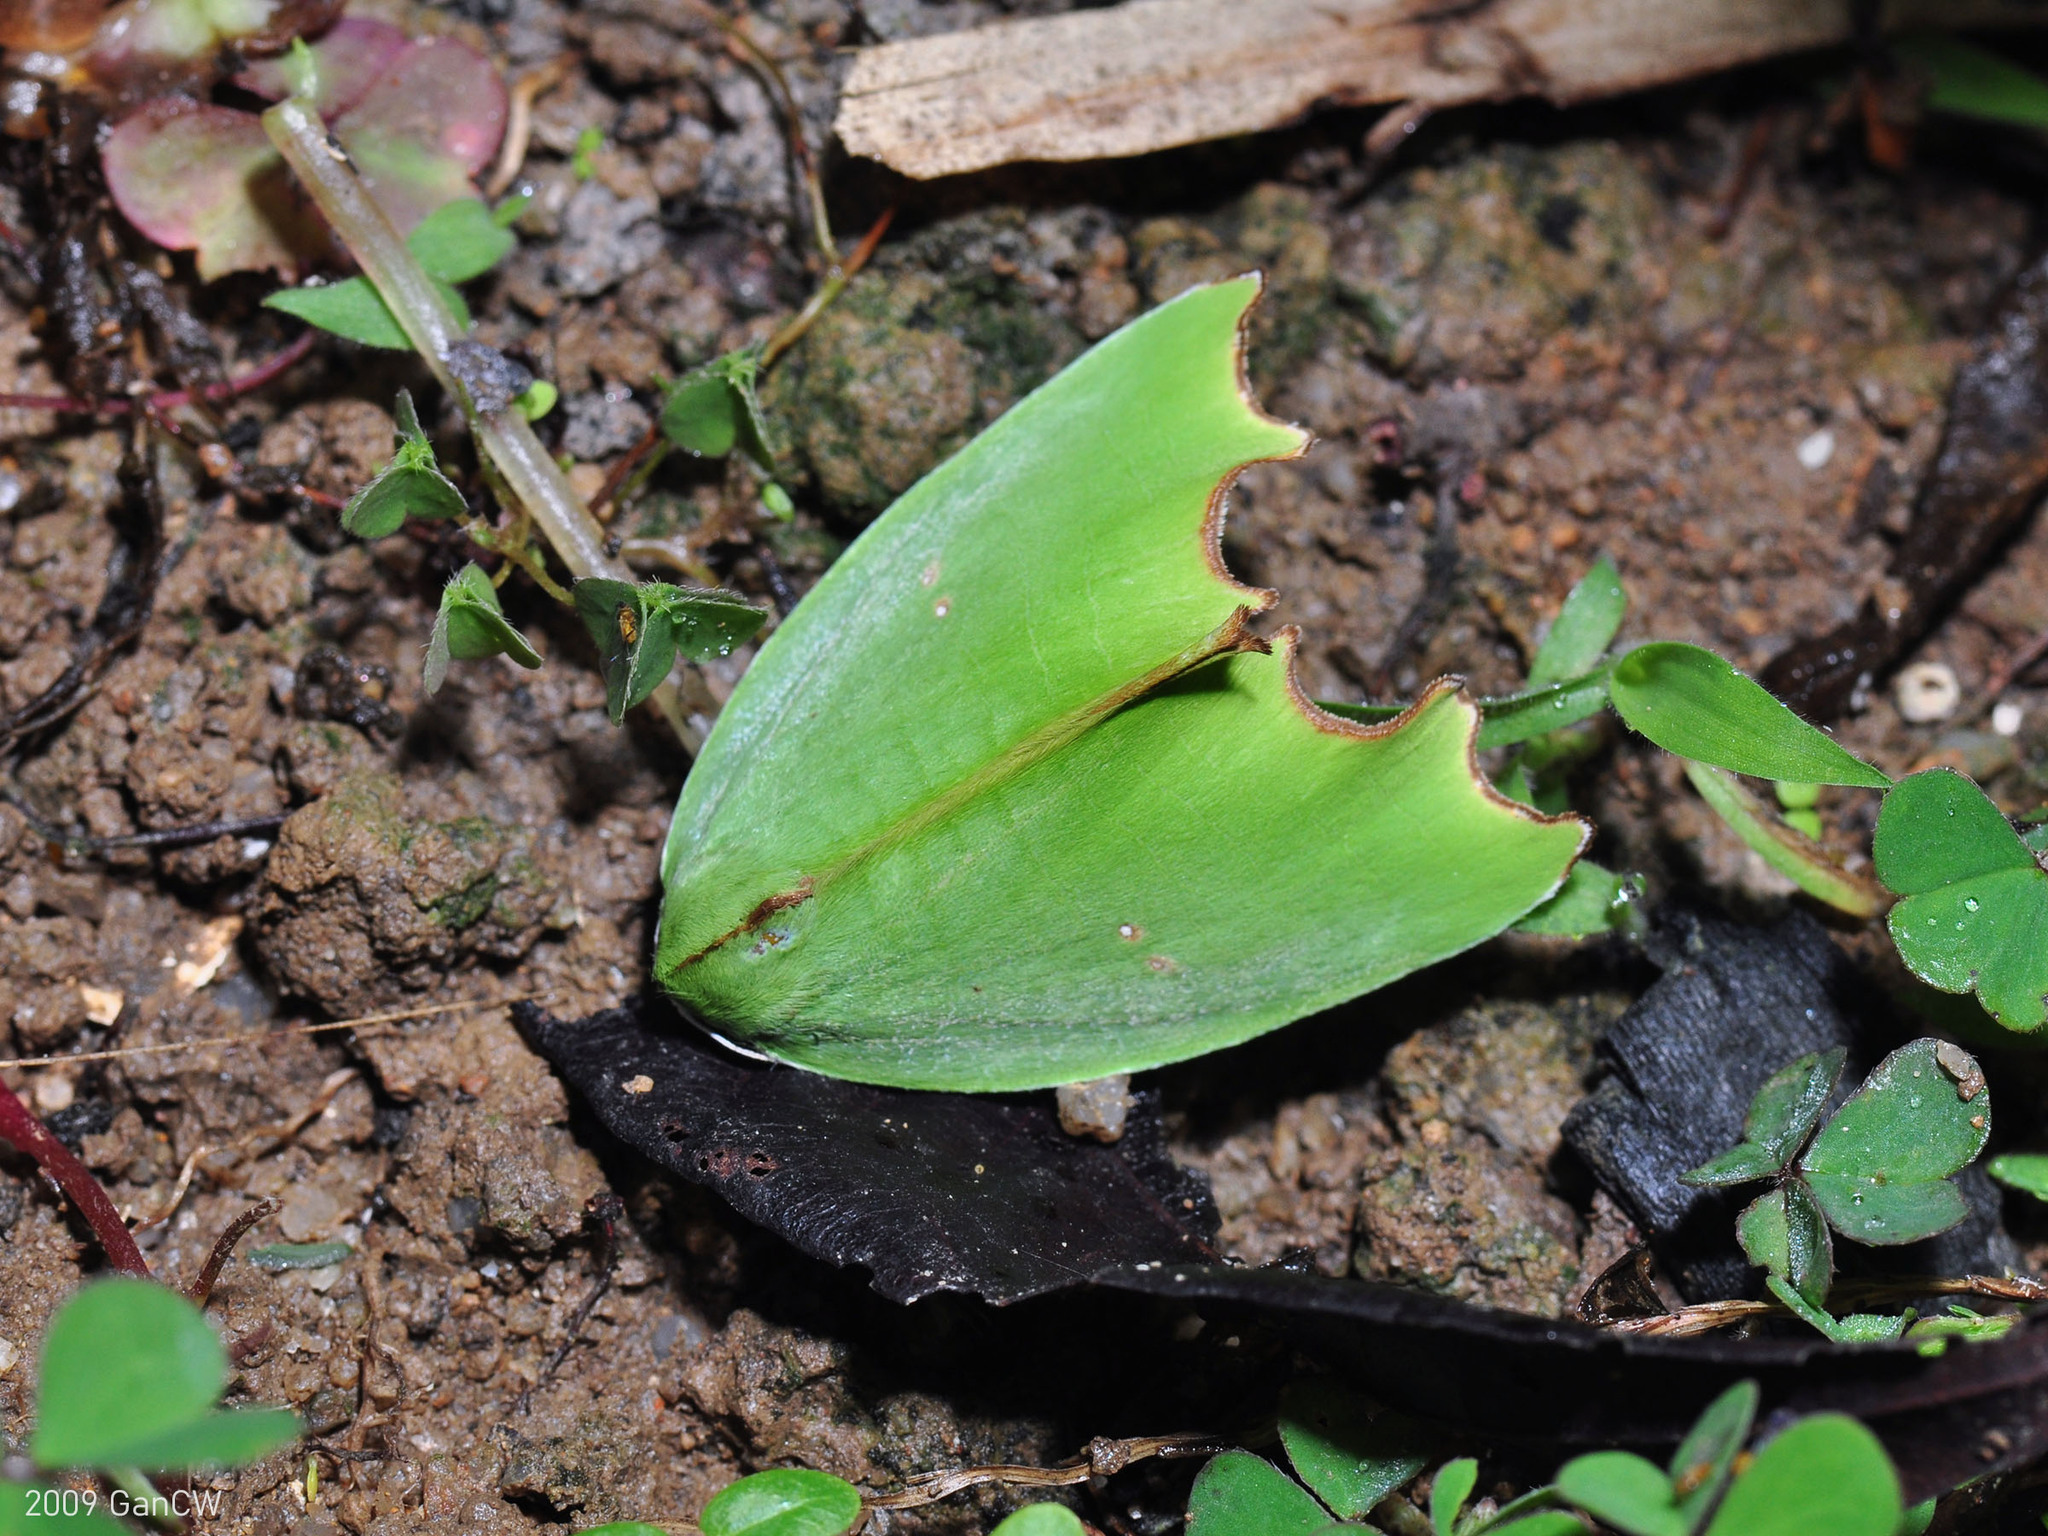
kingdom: Animalia
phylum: Arthropoda
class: Insecta
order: Lepidoptera
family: Noctuidae
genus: Plagerepne
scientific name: Plagerepne torquata
